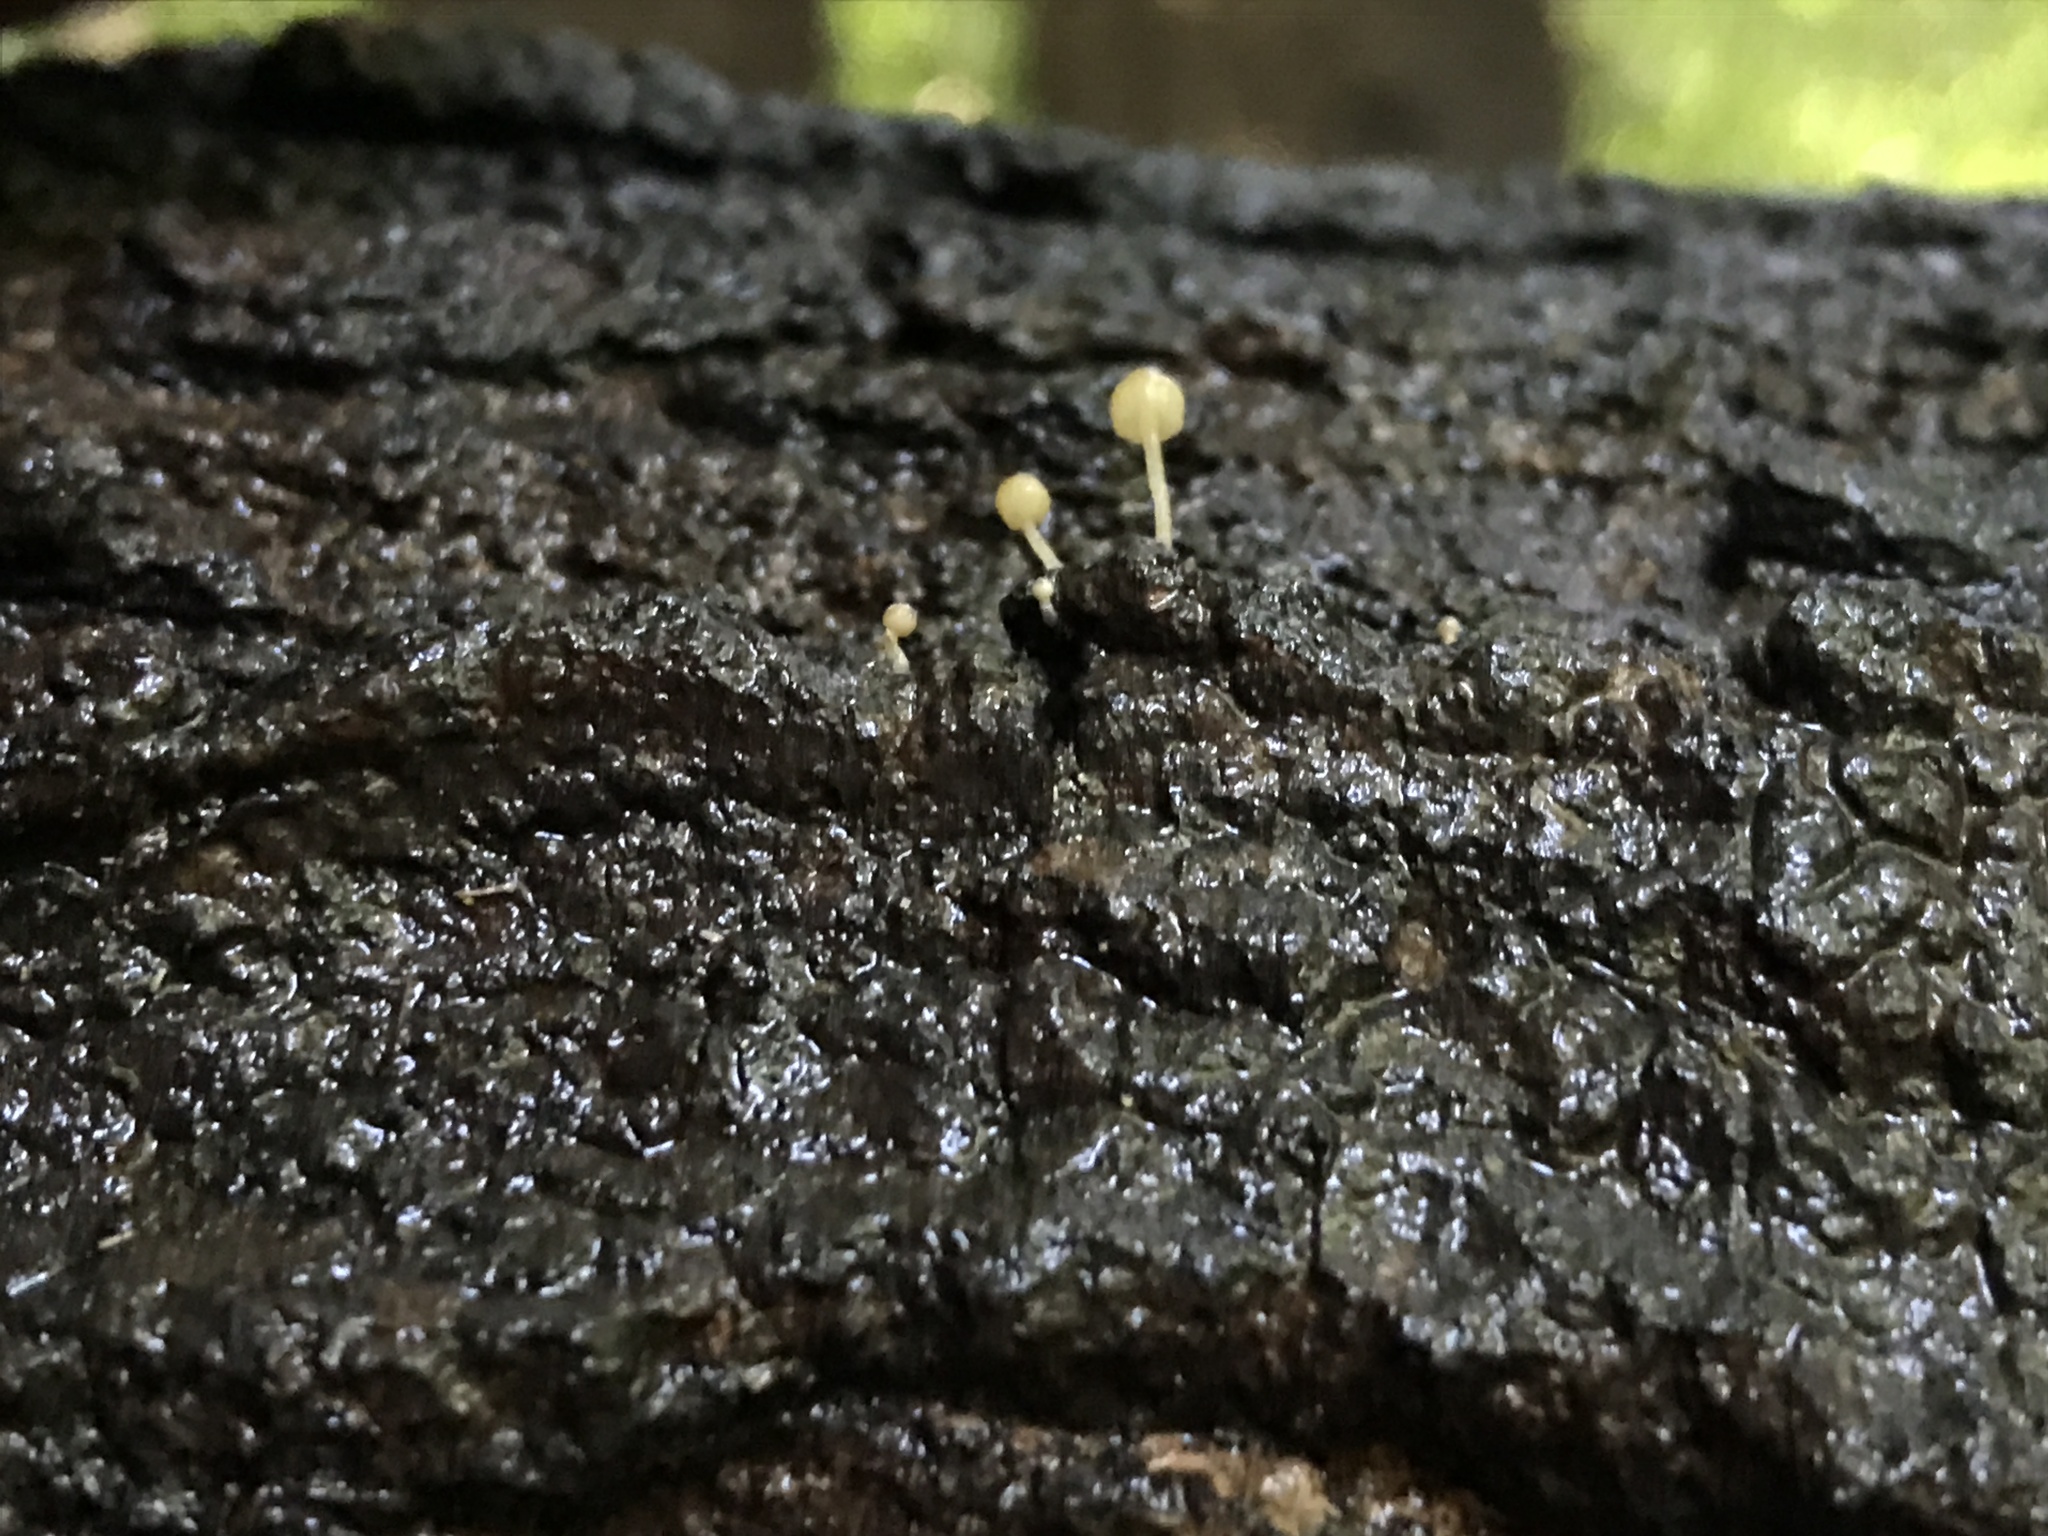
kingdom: Fungi
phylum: Basidiomycota
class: Agaricomycetes
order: Agaricales
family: Mycenaceae
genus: Mycena
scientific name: Mycena meliigena
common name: Mauve bonnet
